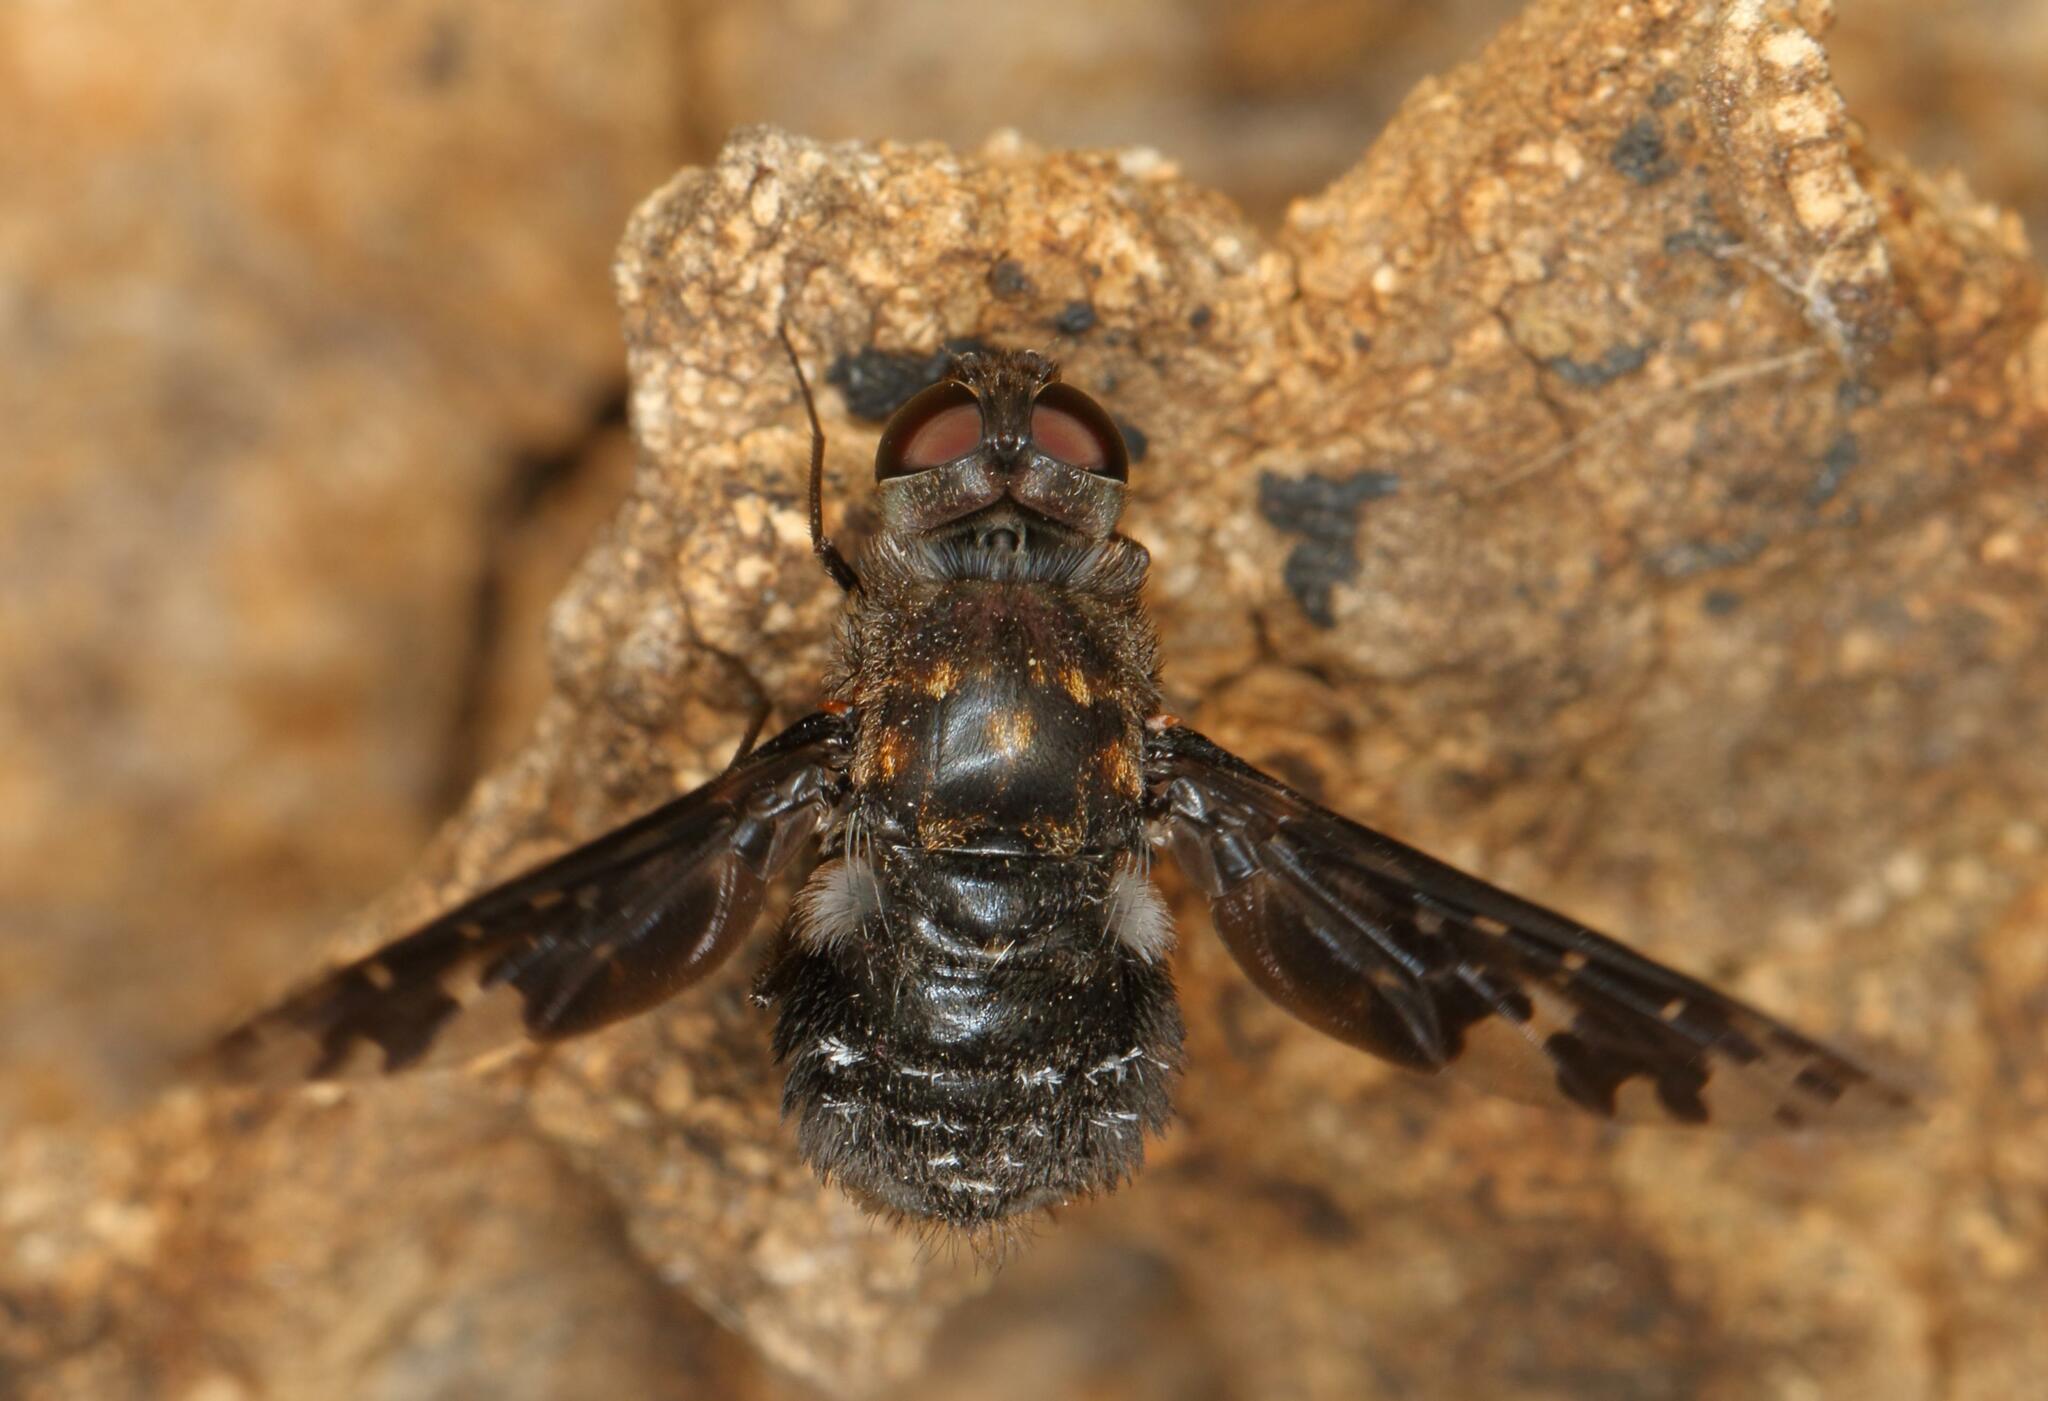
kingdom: Animalia
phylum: Arthropoda
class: Insecta
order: Diptera
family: Bombyliidae
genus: Anthrax
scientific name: Anthrax pithecius
